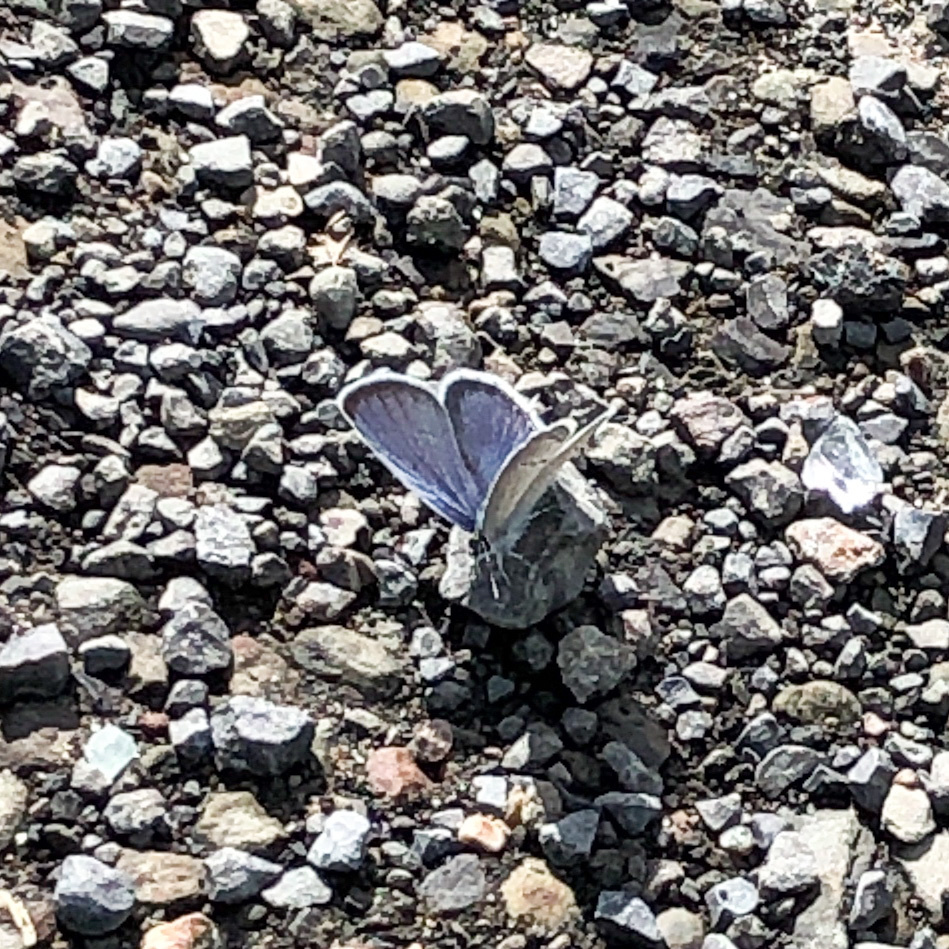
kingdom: Animalia
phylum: Arthropoda
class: Insecta
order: Lepidoptera
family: Lycaenidae
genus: Elkalyce
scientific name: Elkalyce comyntas
